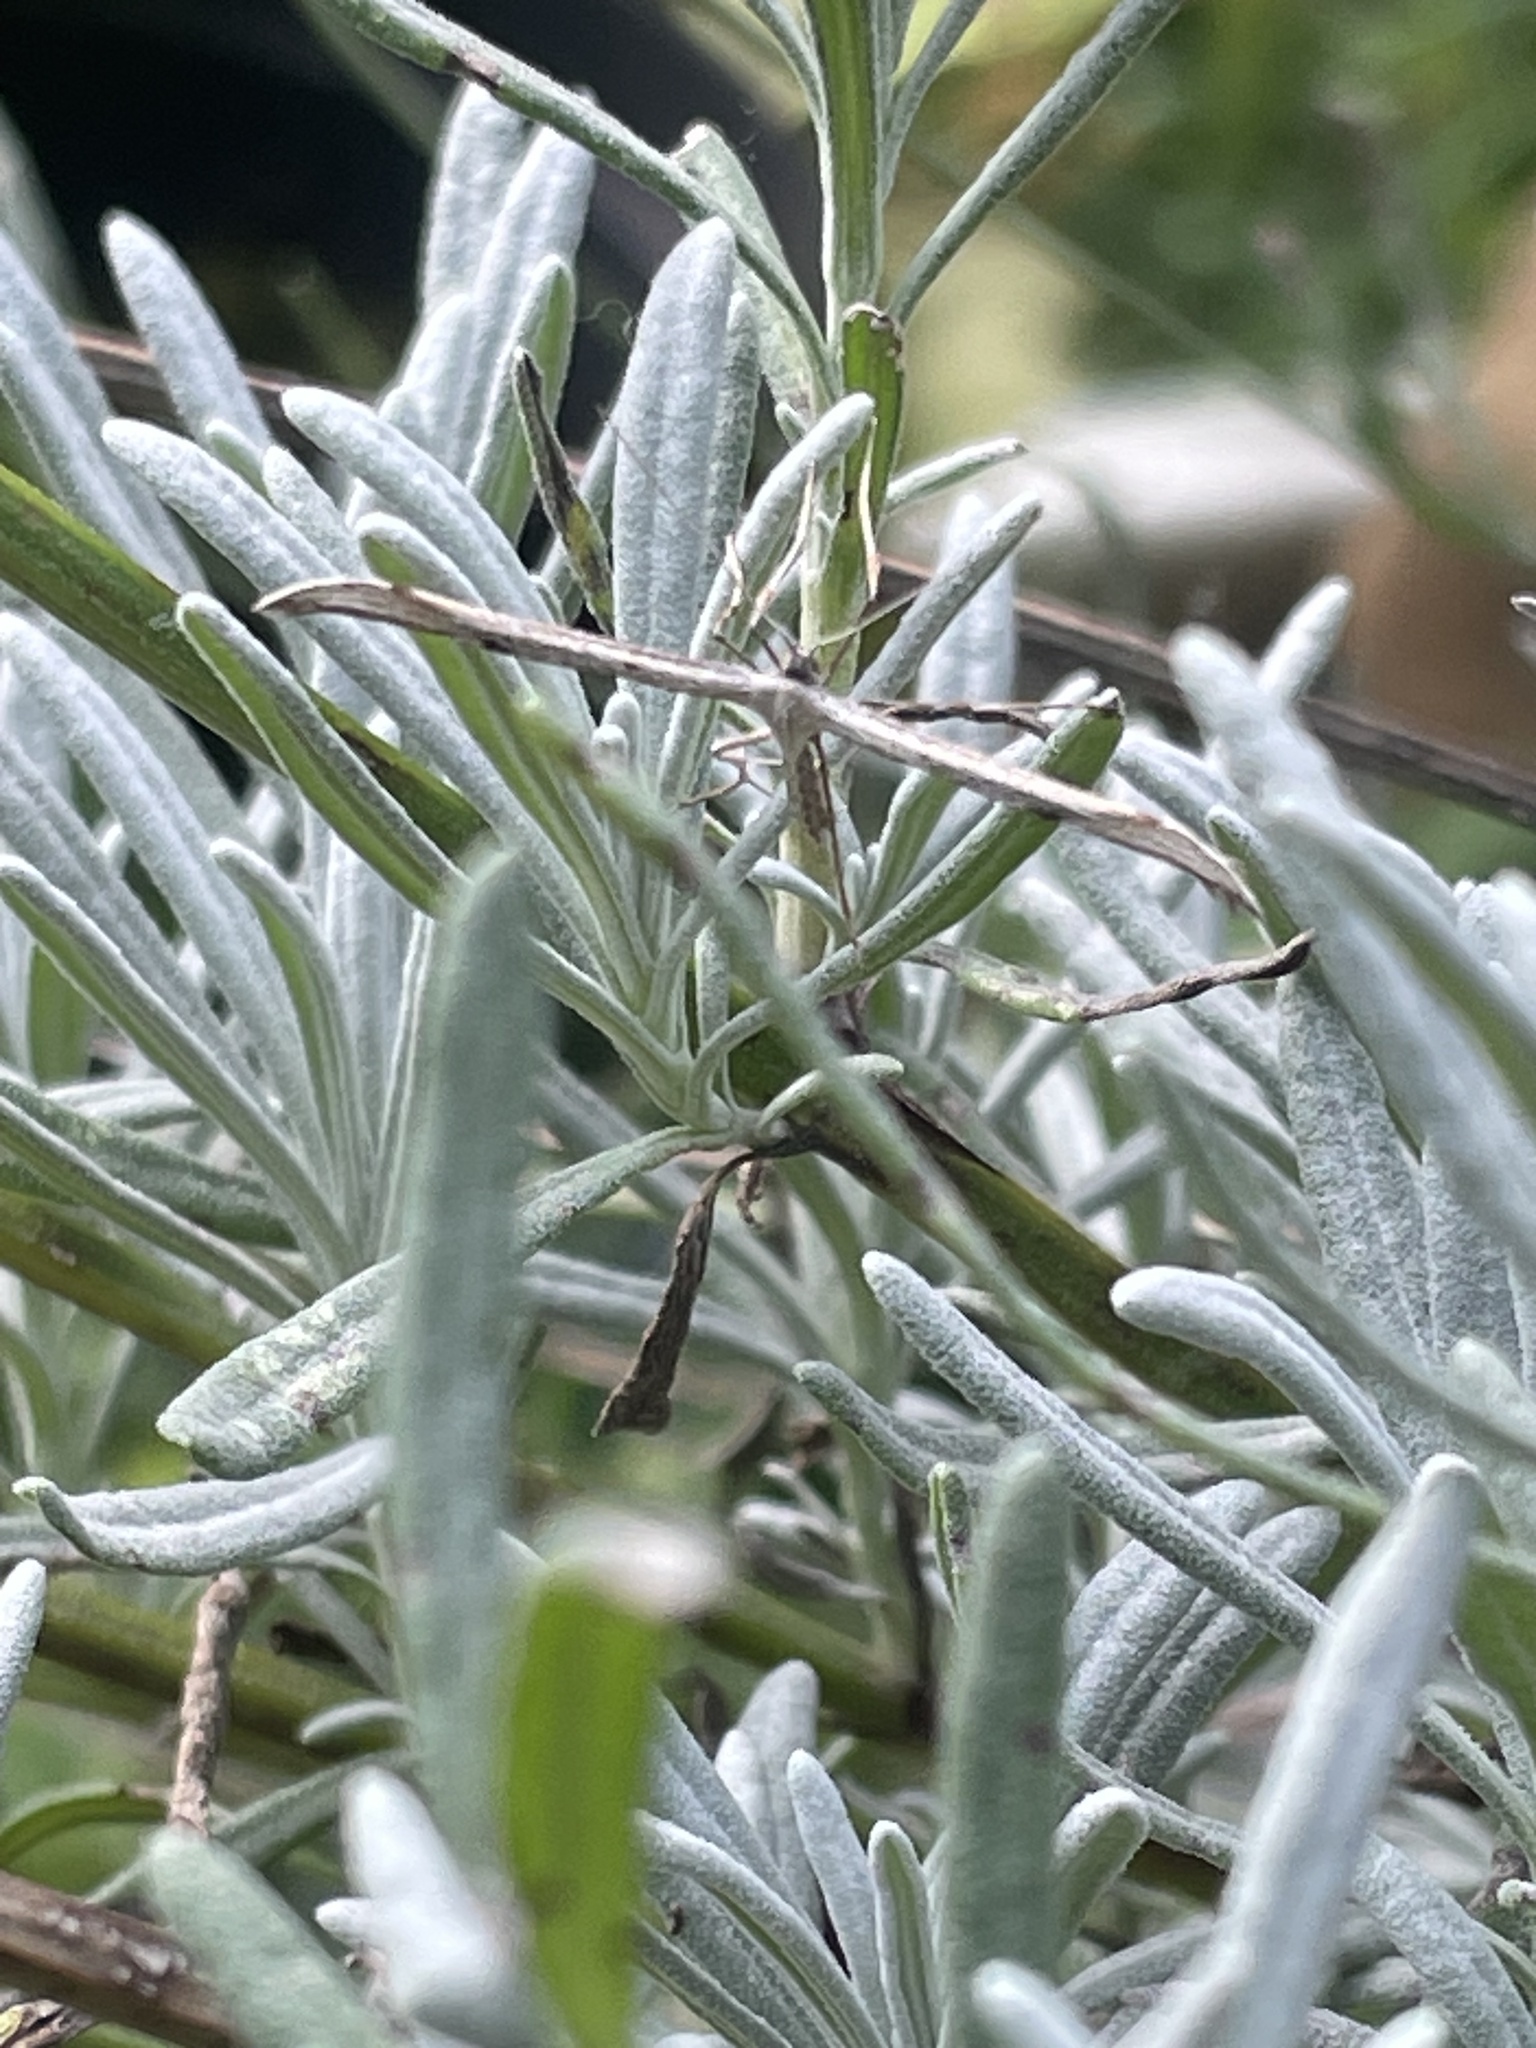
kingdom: Animalia
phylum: Arthropoda
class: Insecta
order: Lepidoptera
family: Pterophoridae
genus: Emmelina
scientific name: Emmelina monodactyla
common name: Common plume
